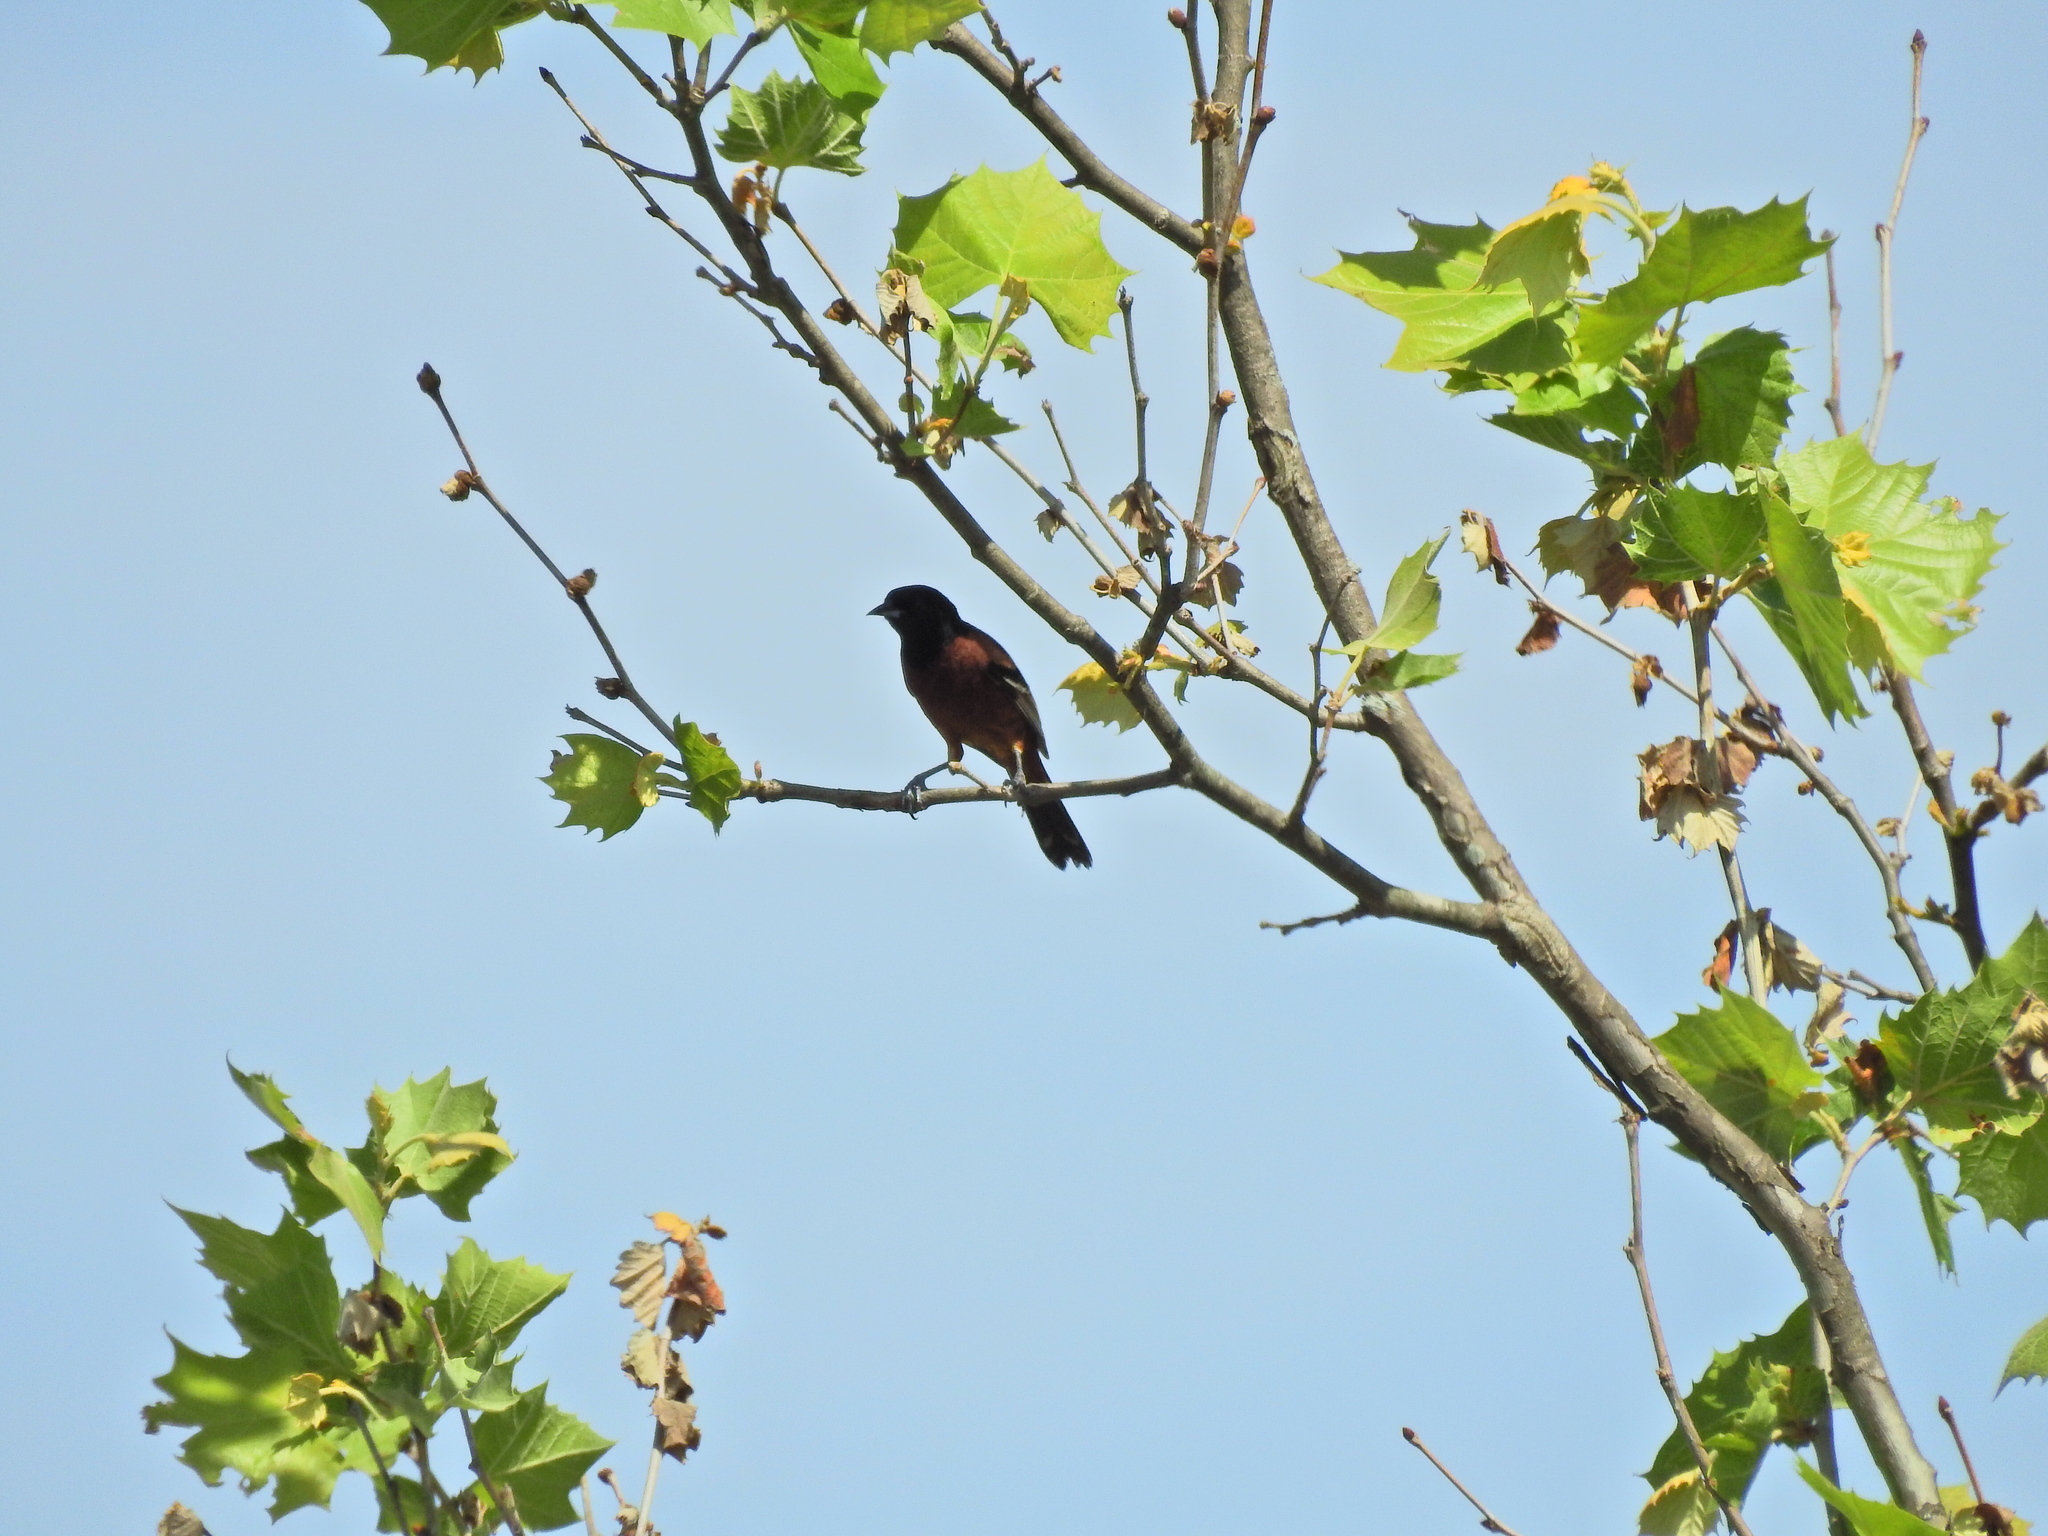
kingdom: Animalia
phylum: Chordata
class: Aves
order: Passeriformes
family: Icteridae
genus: Icterus
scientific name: Icterus spurius
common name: Orchard oriole
